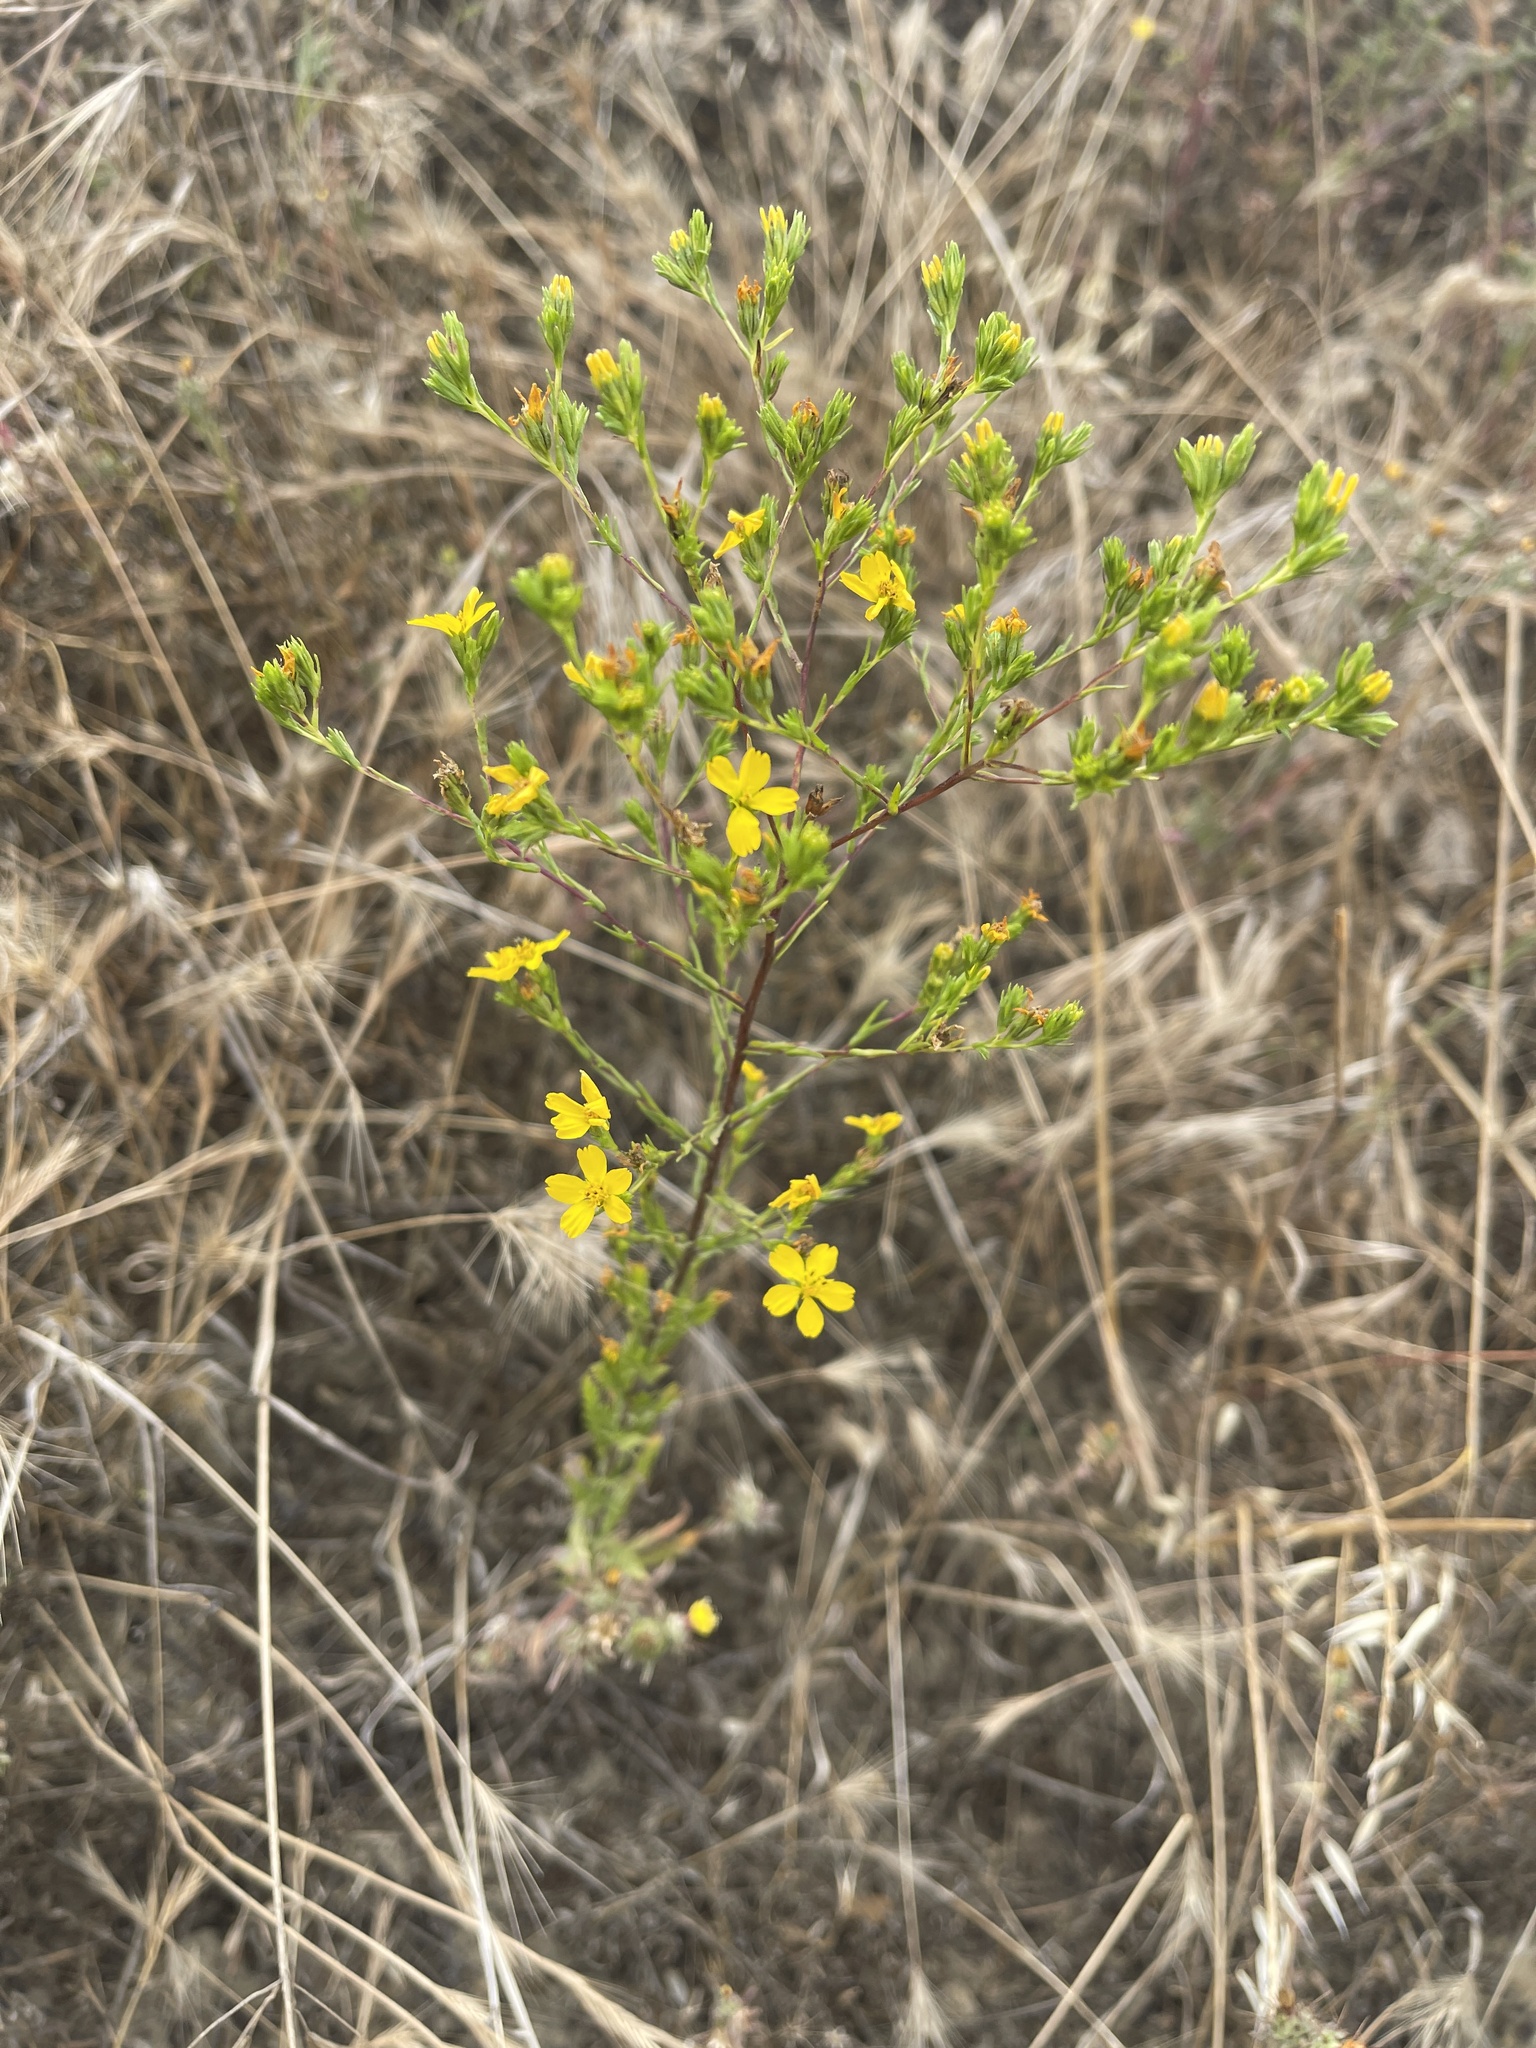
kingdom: Plantae
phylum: Tracheophyta
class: Magnoliopsida
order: Asterales
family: Asteraceae
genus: Deinandra
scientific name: Deinandra fasciculata
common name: Clustered tarweed
